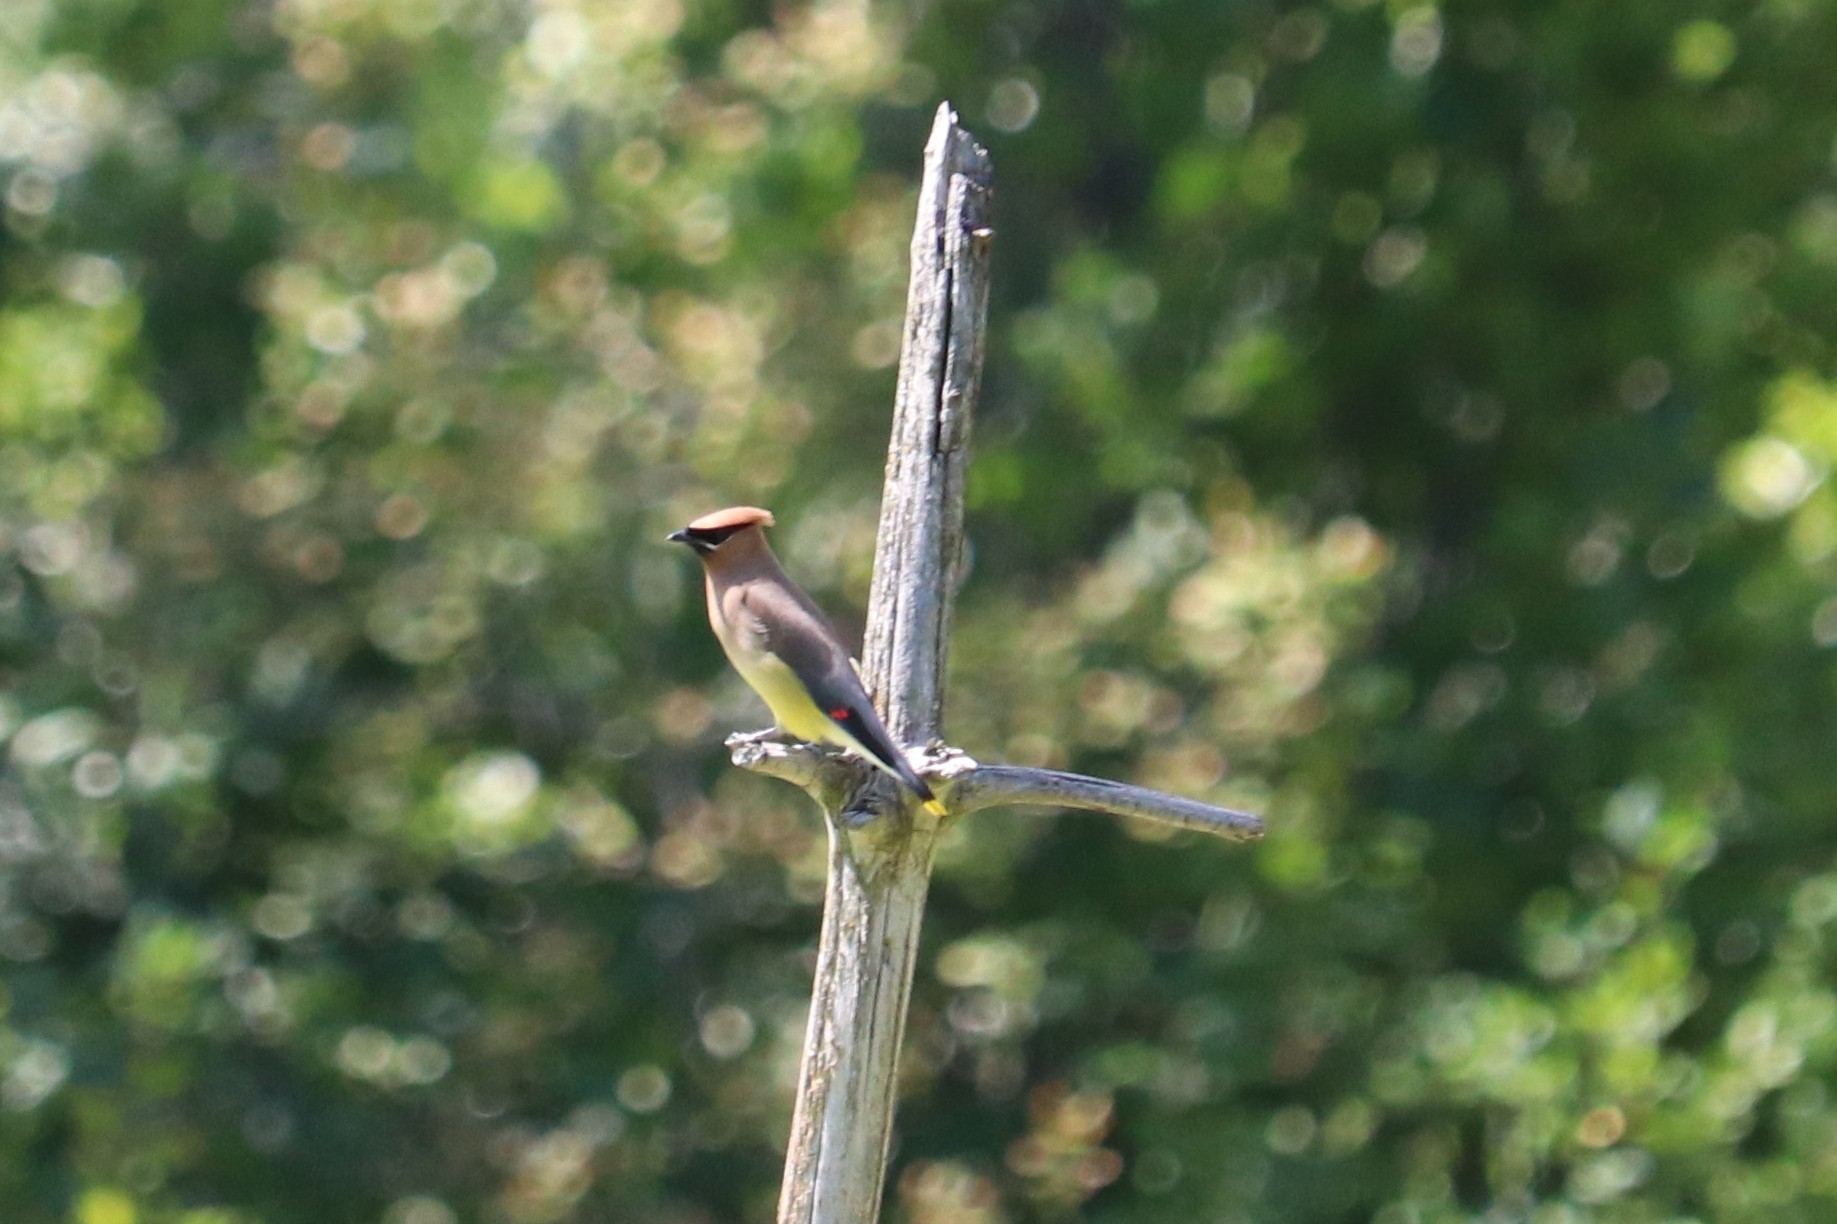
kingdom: Animalia
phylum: Chordata
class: Aves
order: Passeriformes
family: Bombycillidae
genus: Bombycilla
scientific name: Bombycilla cedrorum
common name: Cedar waxwing
